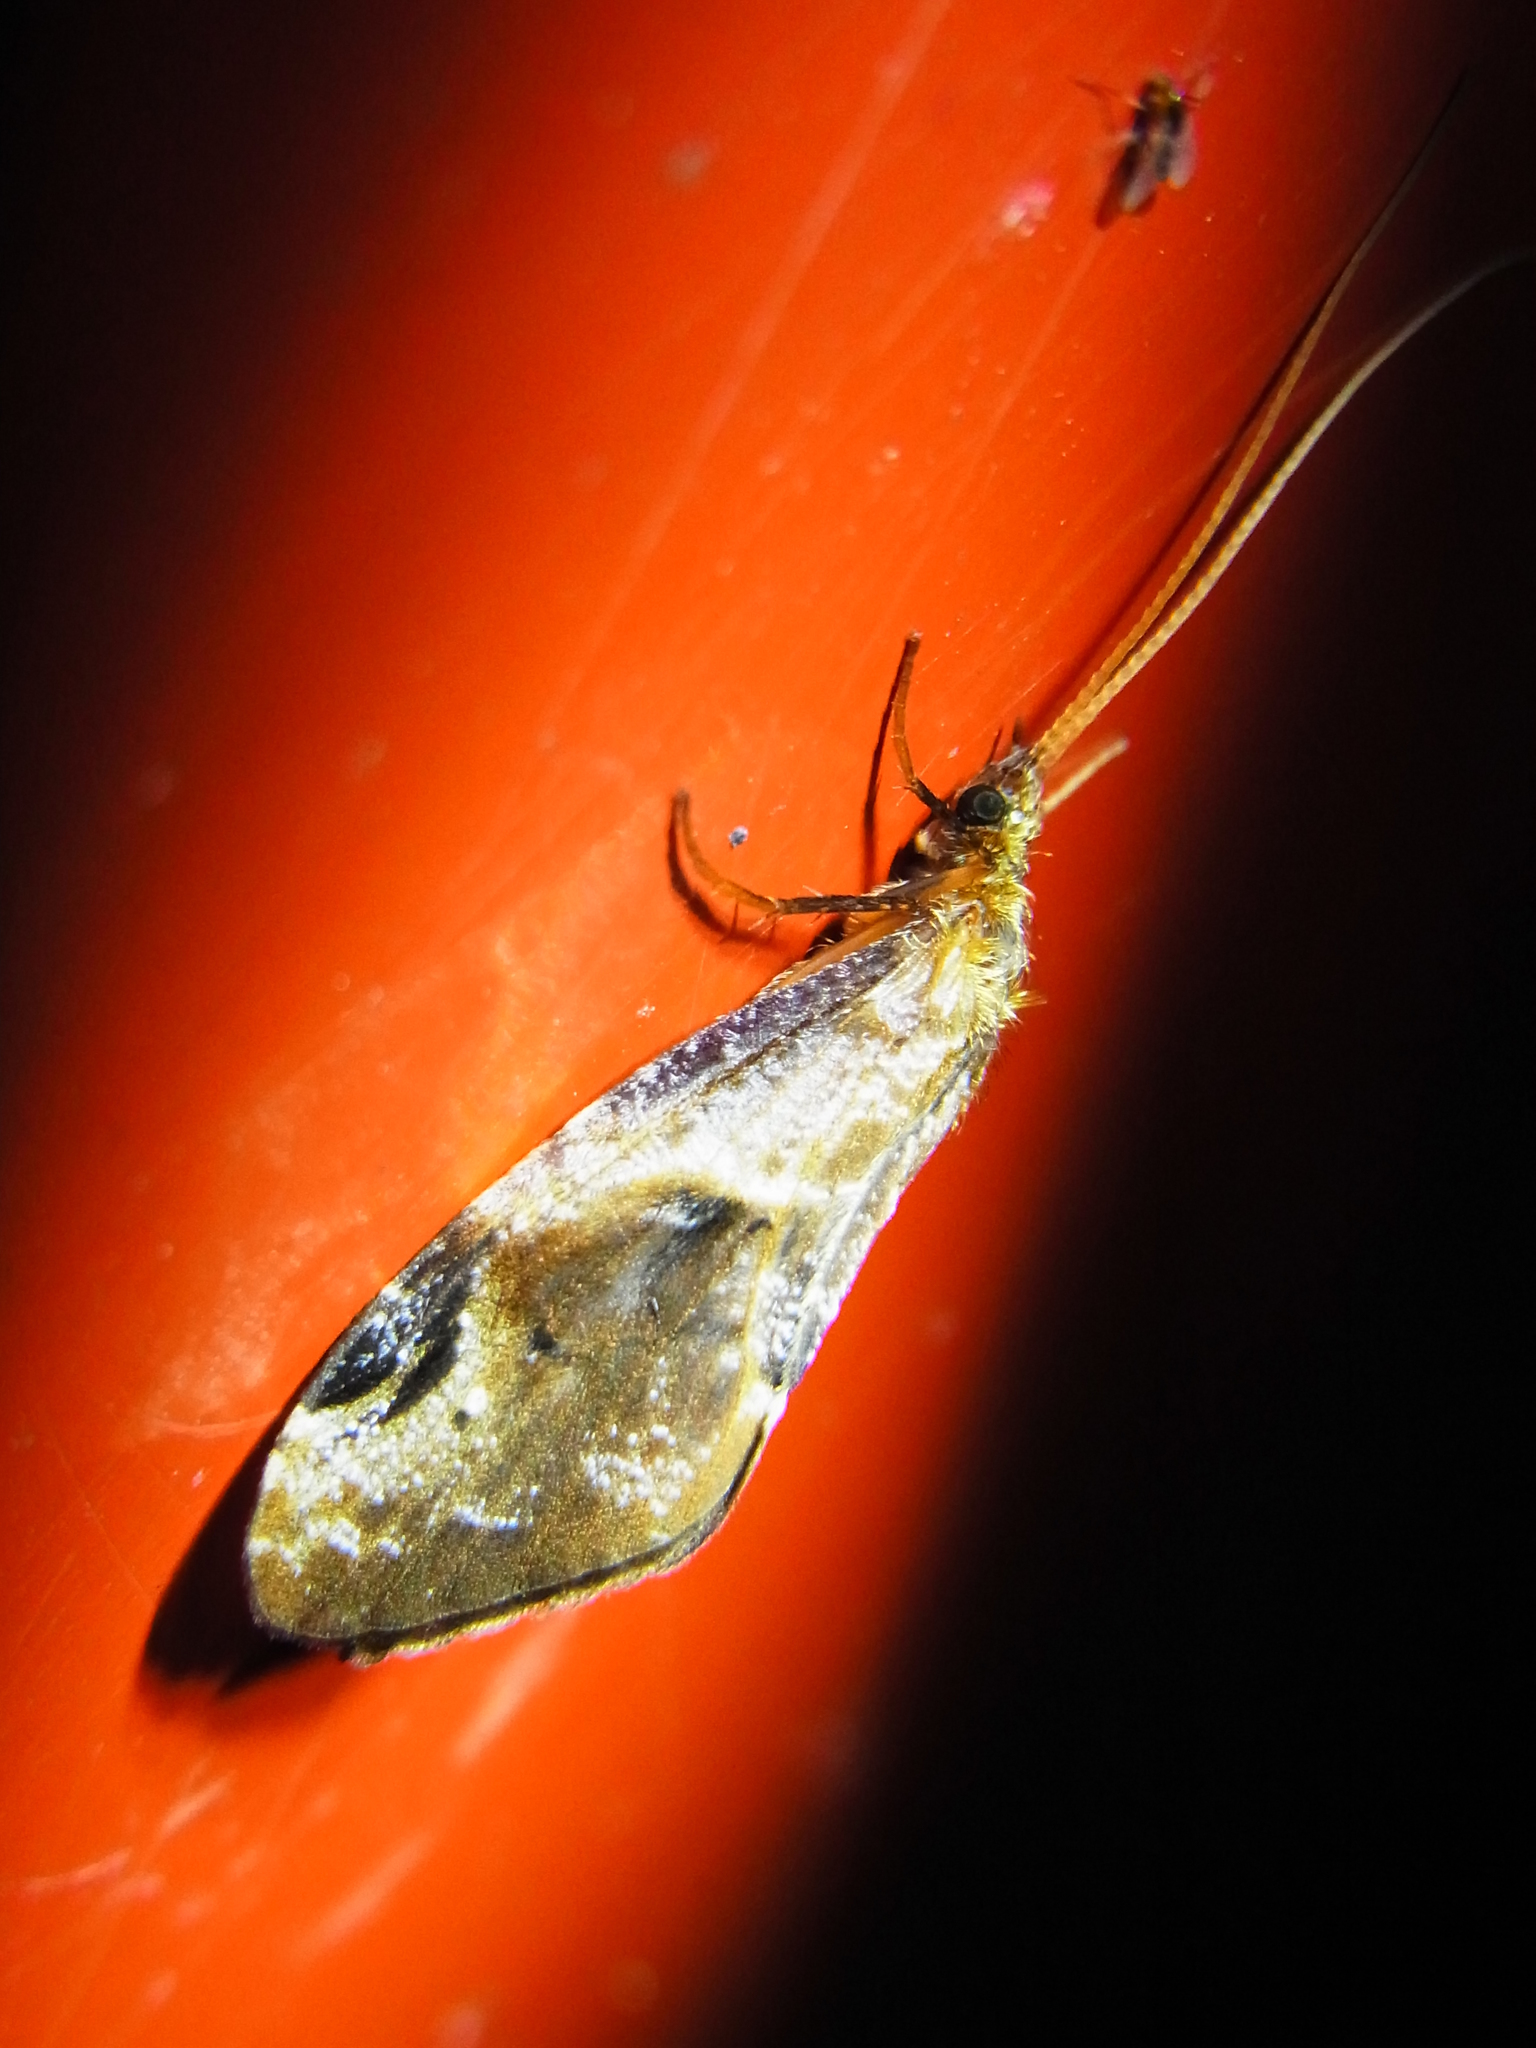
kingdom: Animalia
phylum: Arthropoda
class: Insecta
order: Trichoptera
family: Phryganopsychidae
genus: Phryganopsyche
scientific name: Phryganopsyche latipennis
